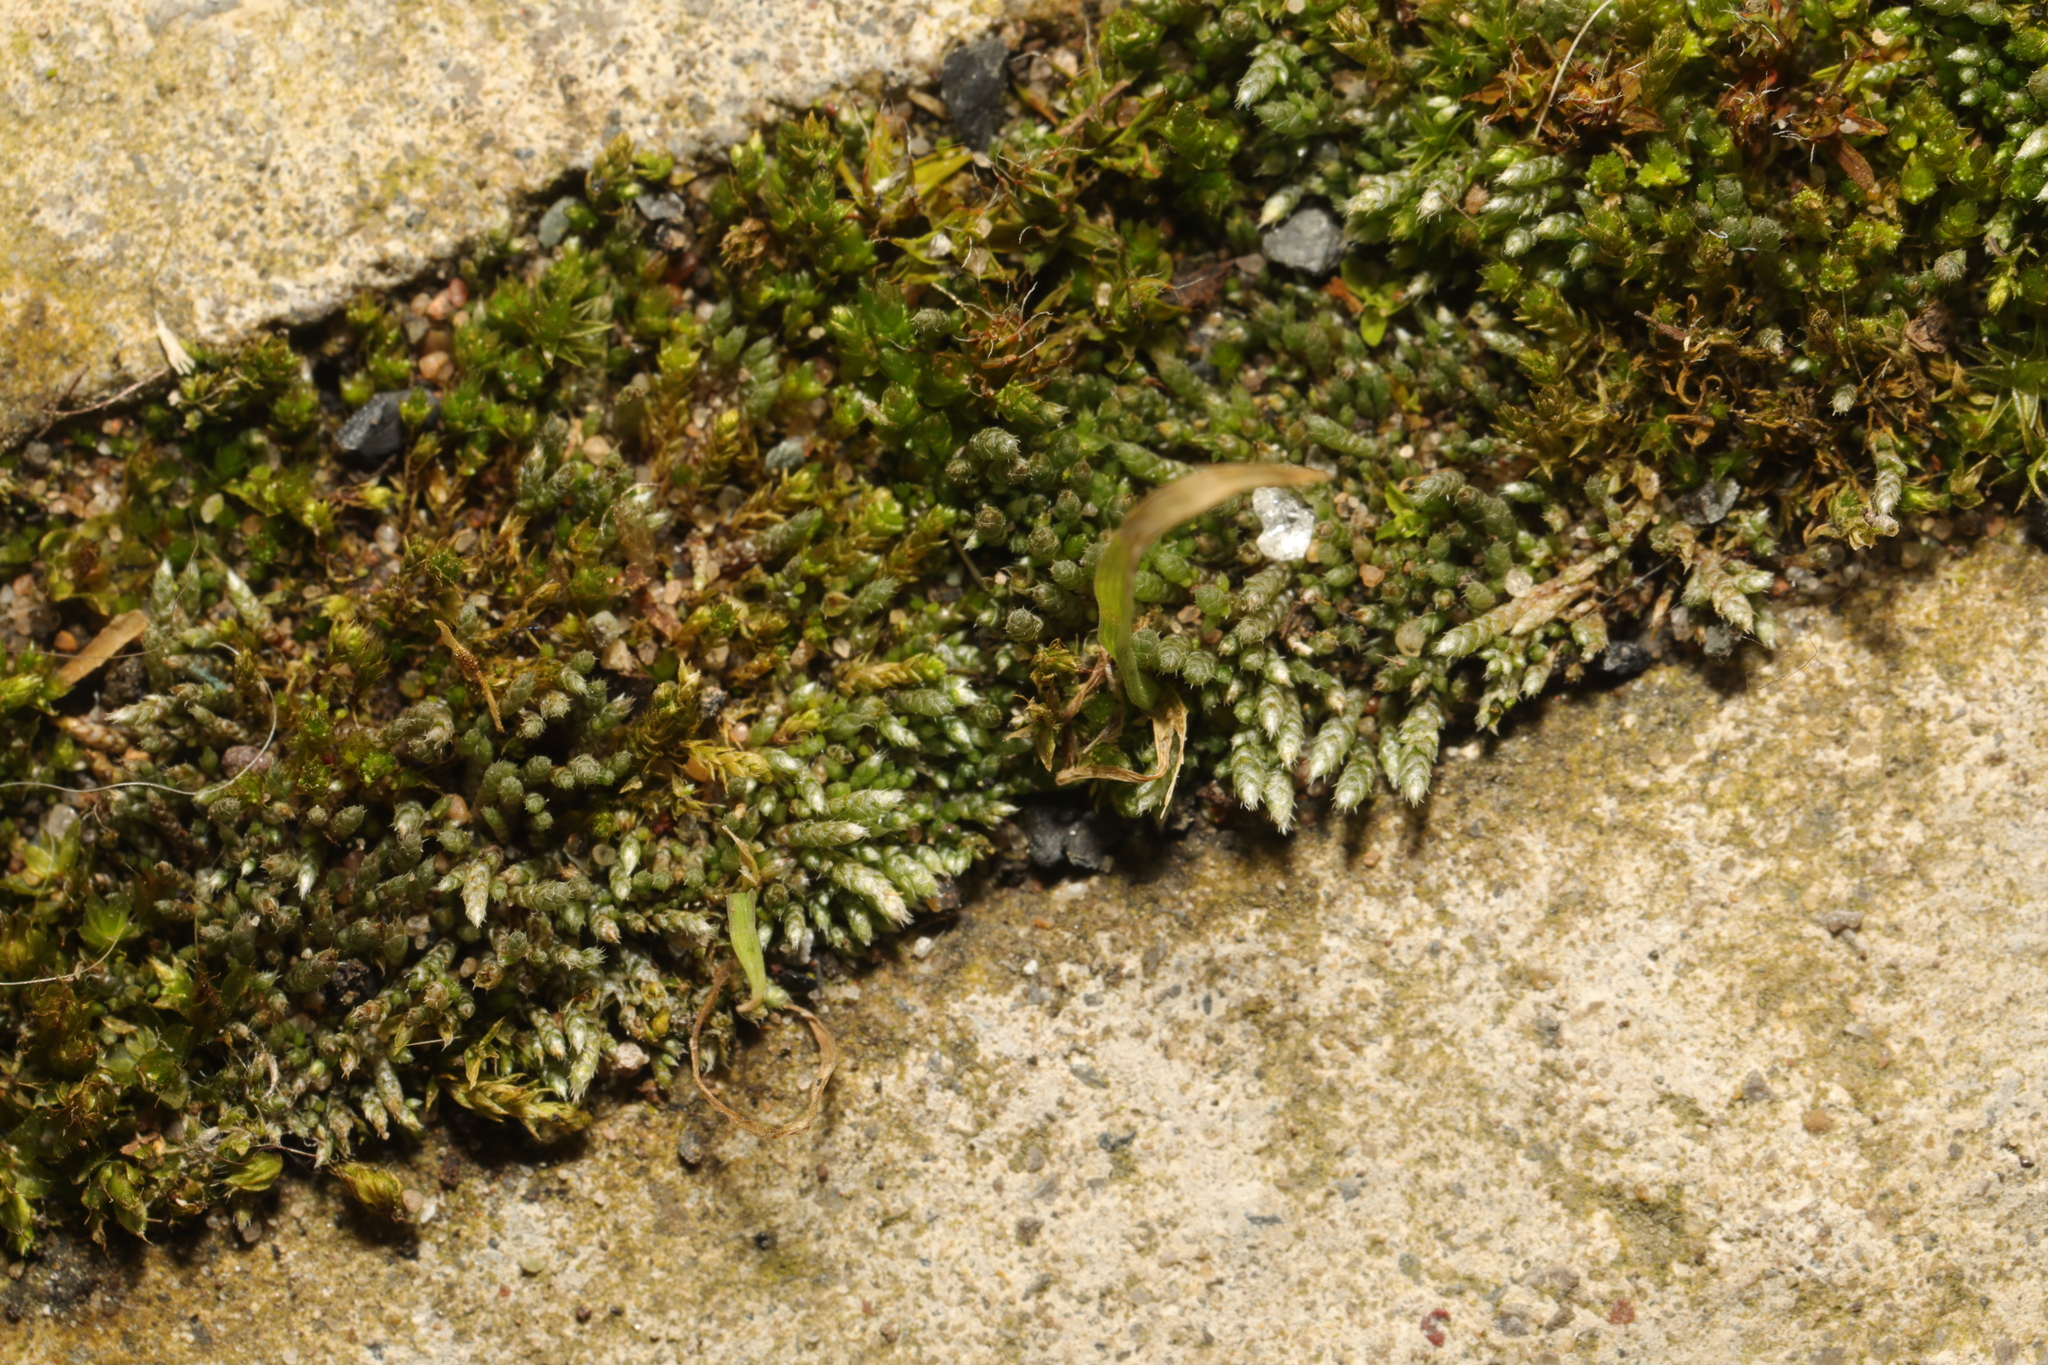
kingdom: Plantae
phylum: Bryophyta
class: Bryopsida
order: Bryales
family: Bryaceae
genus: Bryum
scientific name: Bryum argenteum
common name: Silver-moss
